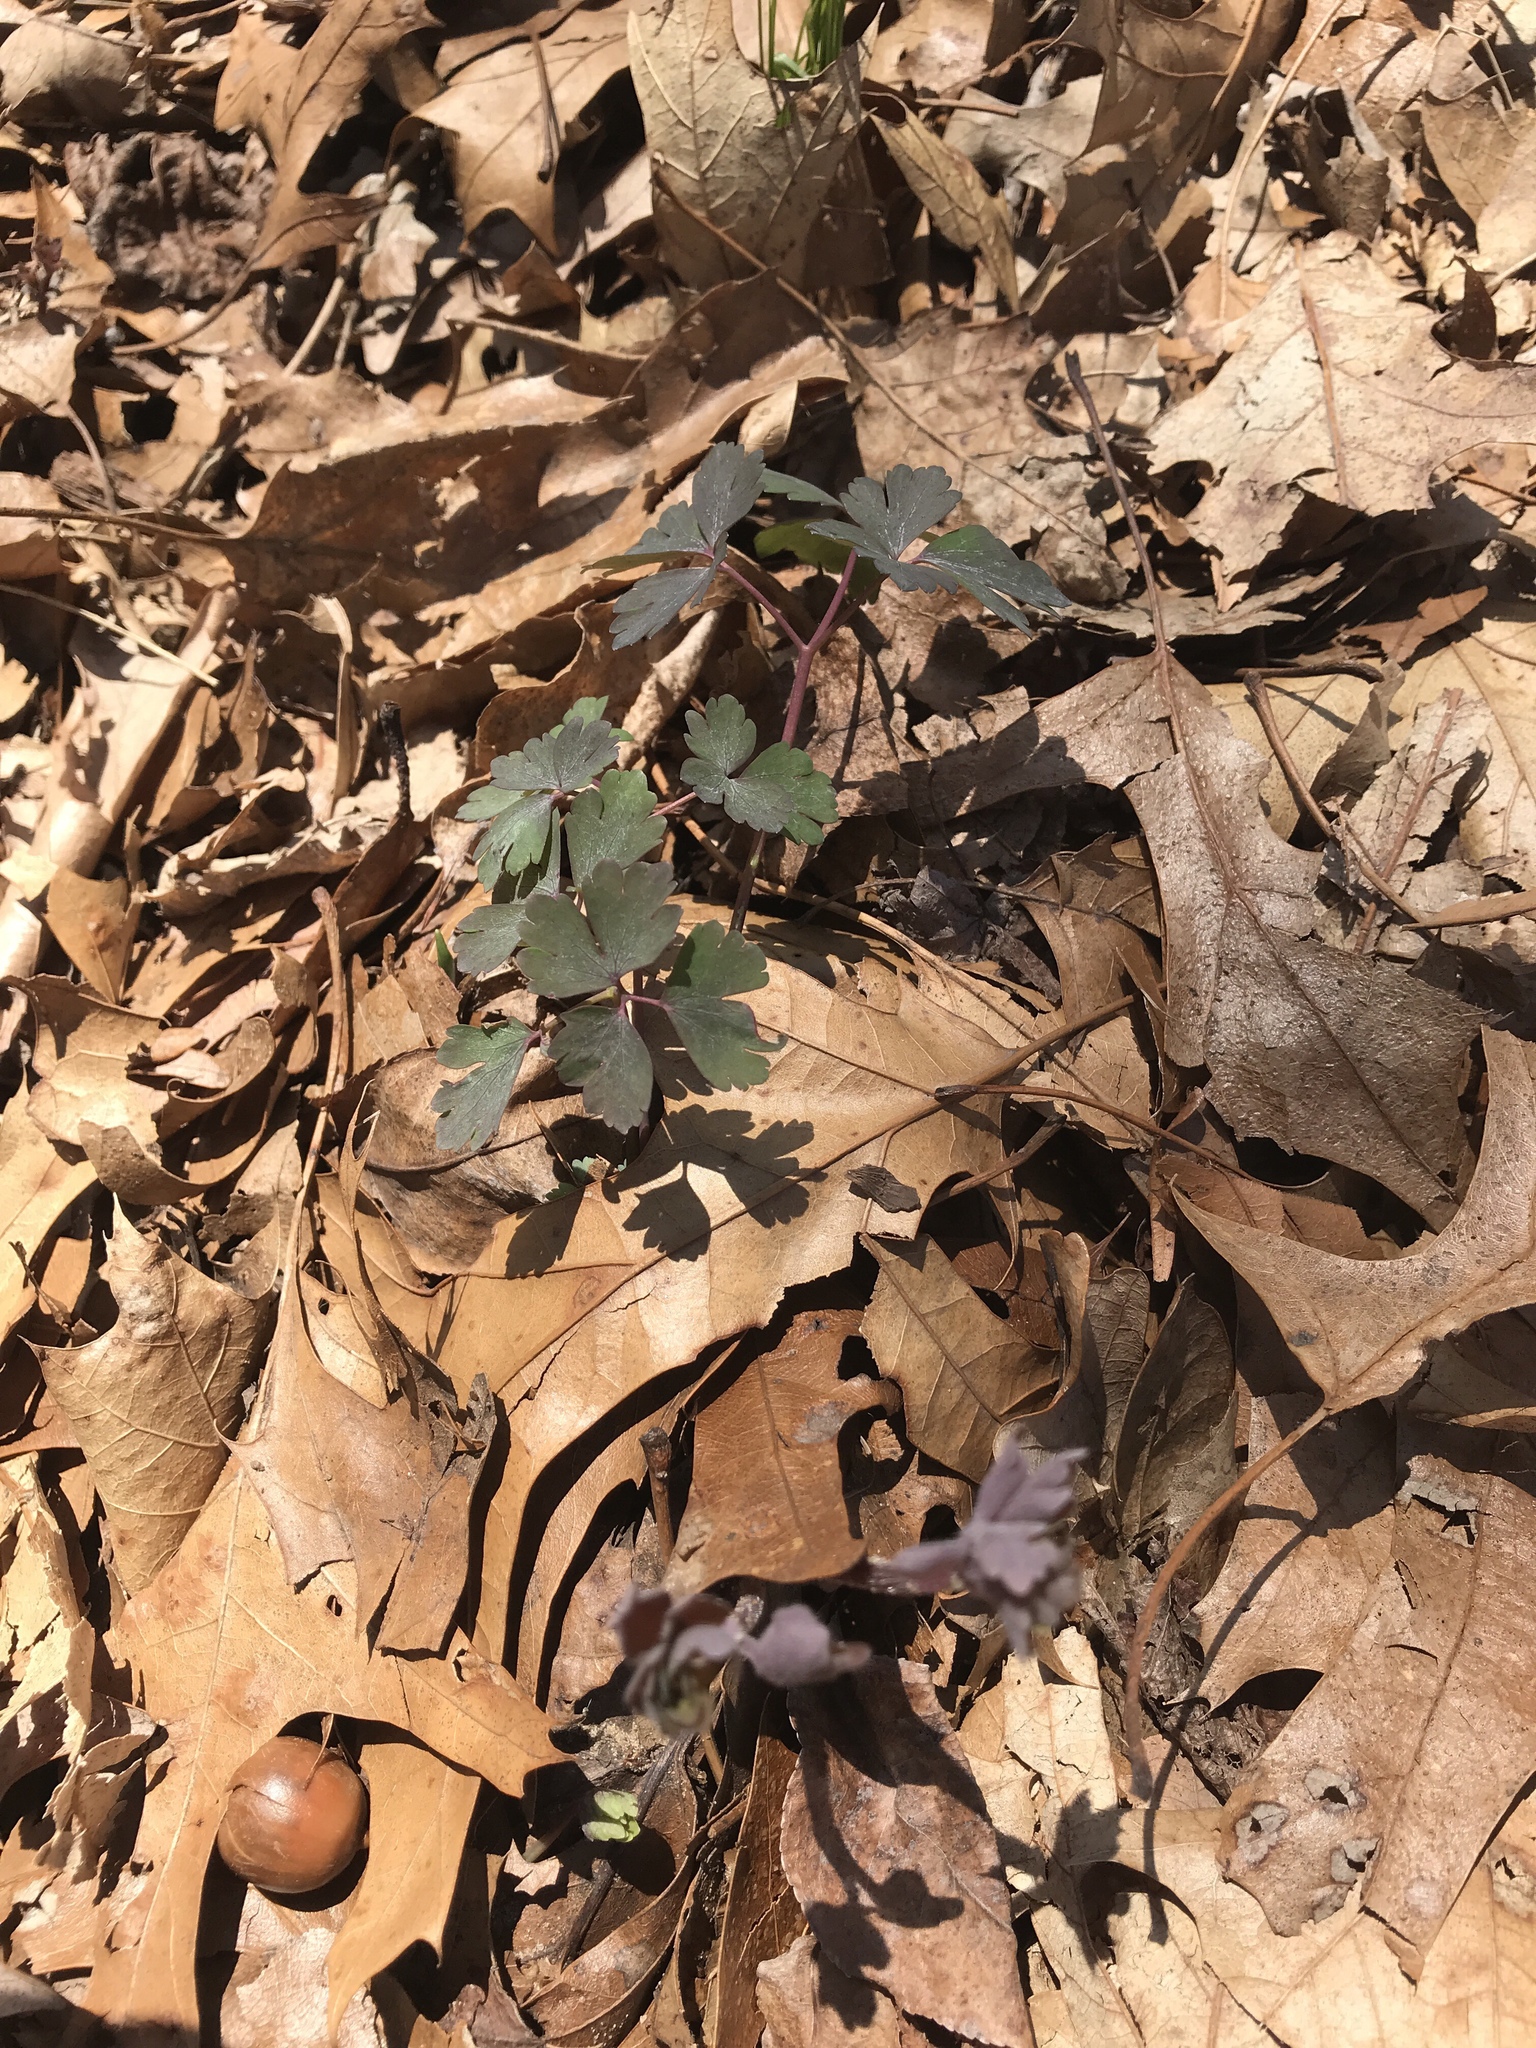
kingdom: Plantae
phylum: Tracheophyta
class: Magnoliopsida
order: Ranunculales
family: Ranunculaceae
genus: Aquilegia
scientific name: Aquilegia canadensis
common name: American columbine
